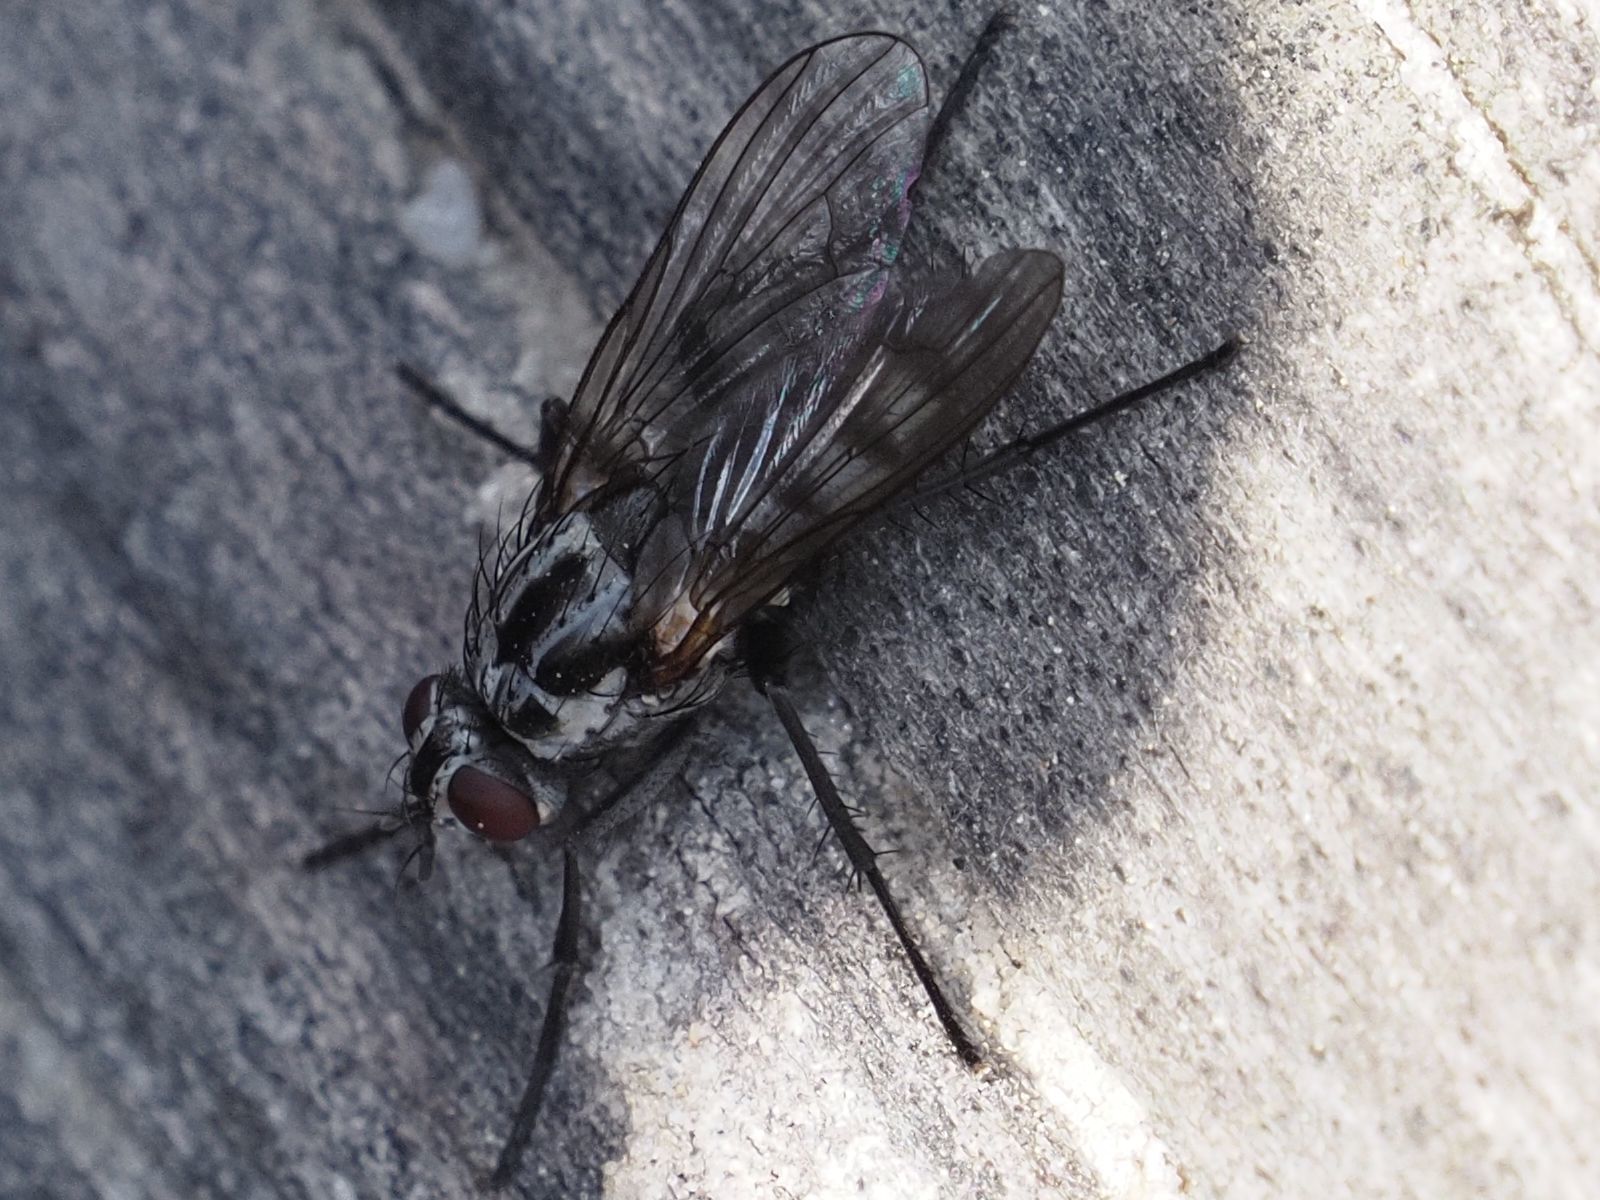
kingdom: Animalia
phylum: Arthropoda
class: Insecta
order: Diptera
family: Anthomyiidae
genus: Eustalomyia
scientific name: Eustalomyia festiva
